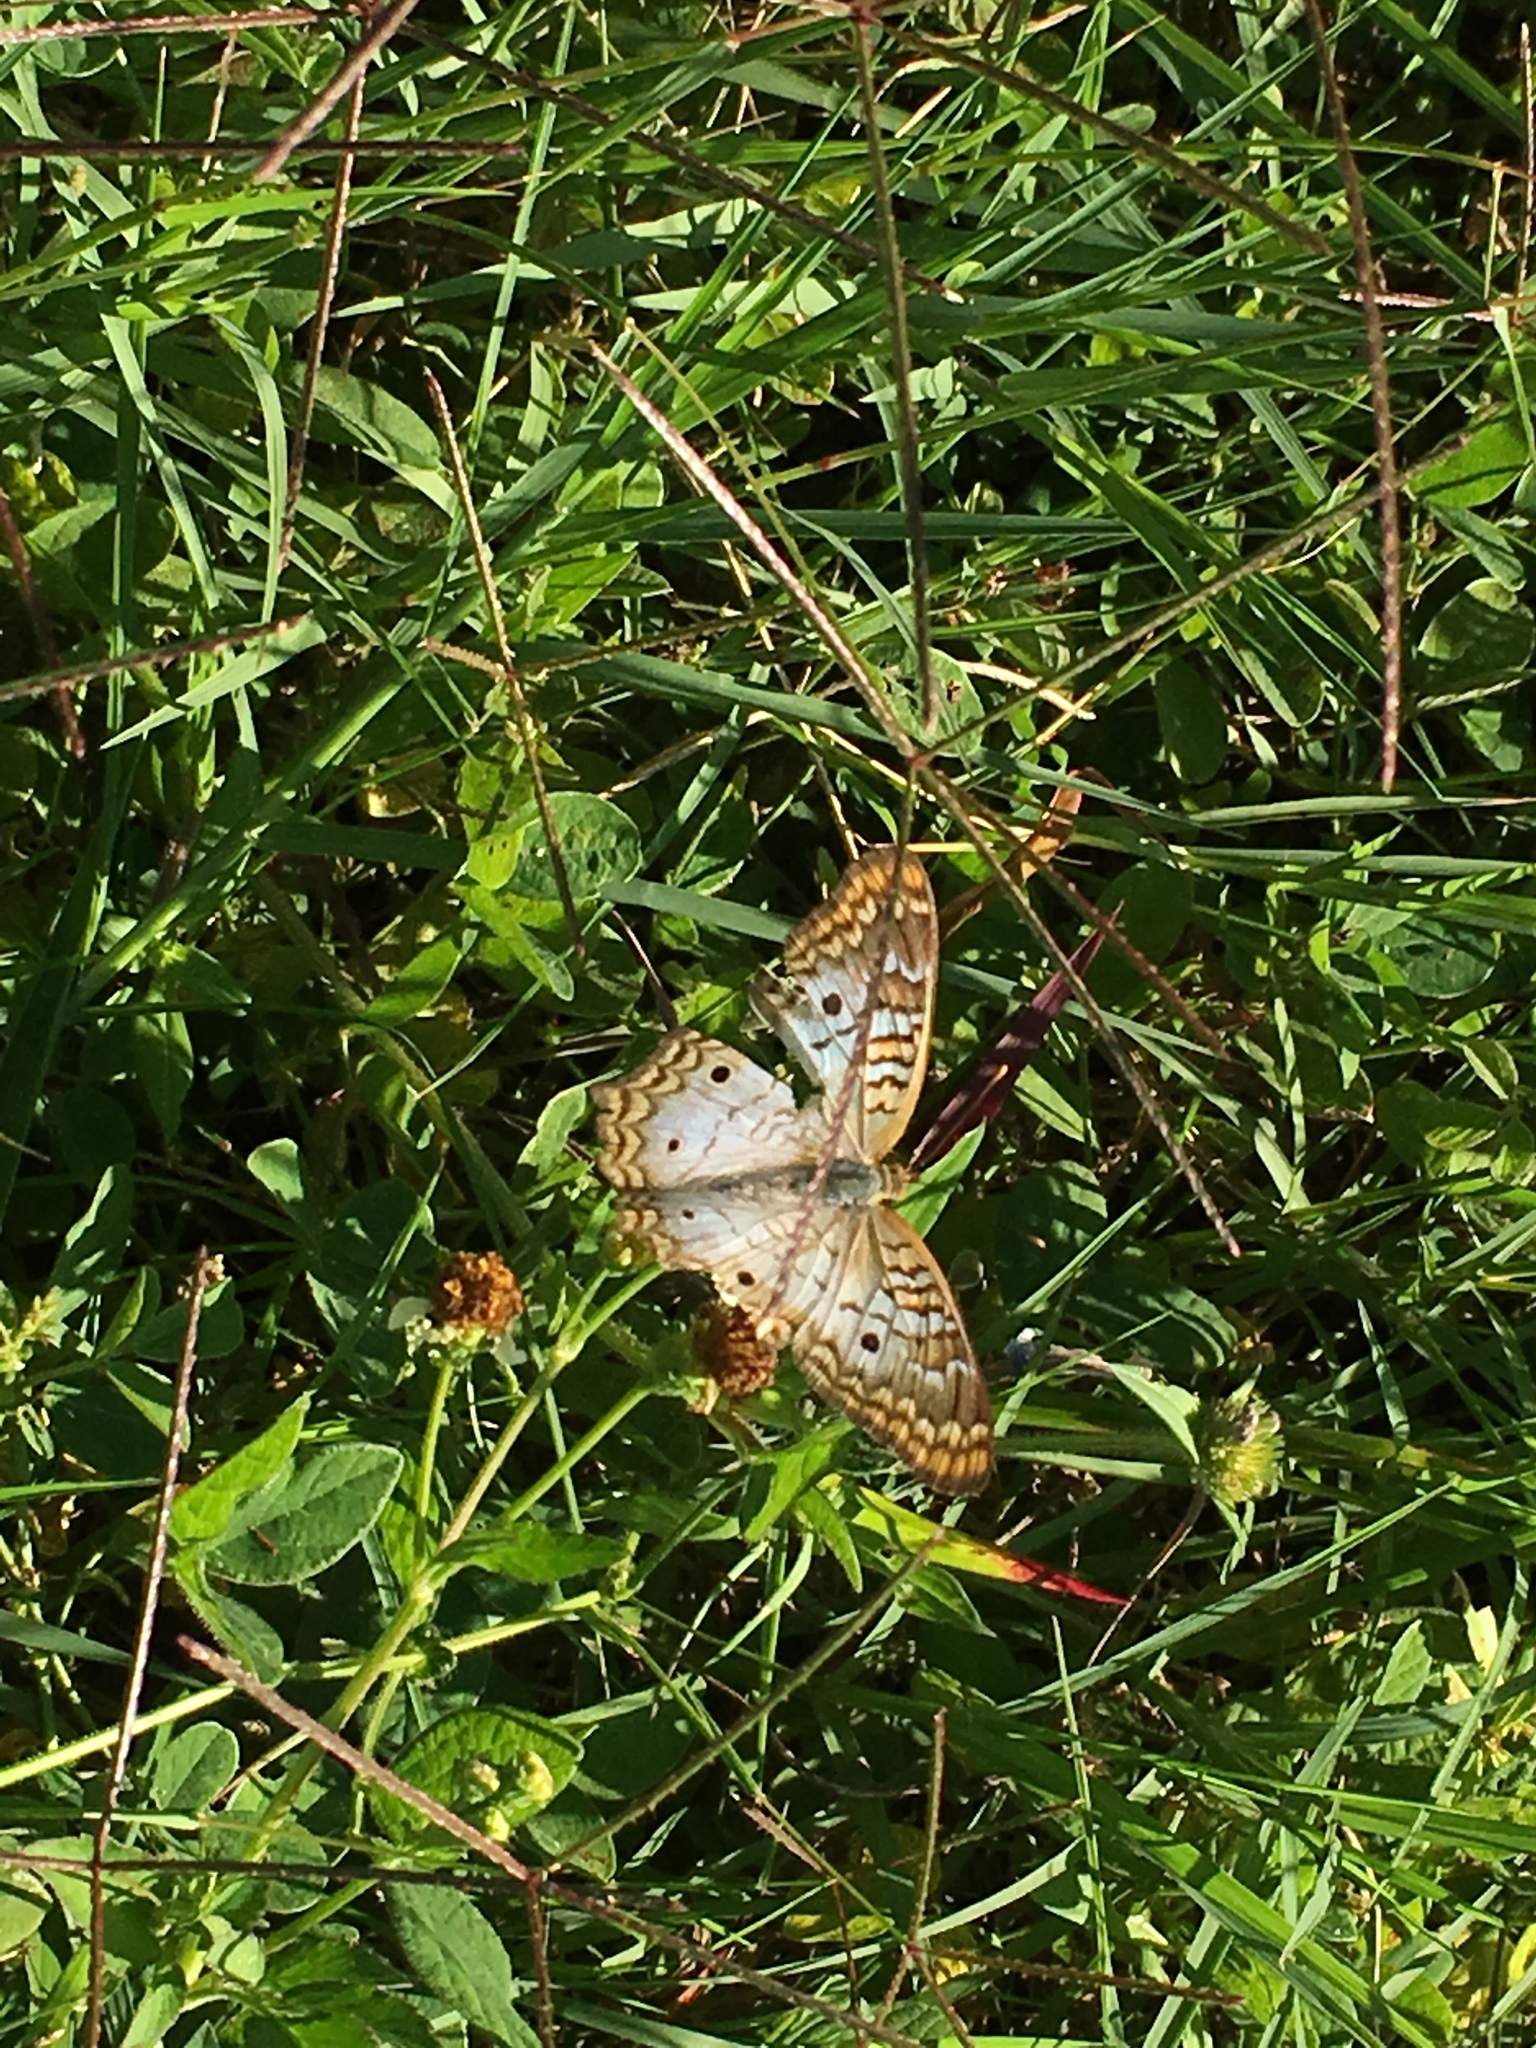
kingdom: Animalia
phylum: Arthropoda
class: Insecta
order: Lepidoptera
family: Nymphalidae
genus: Anartia
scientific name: Anartia jatrophae
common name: White peacock
